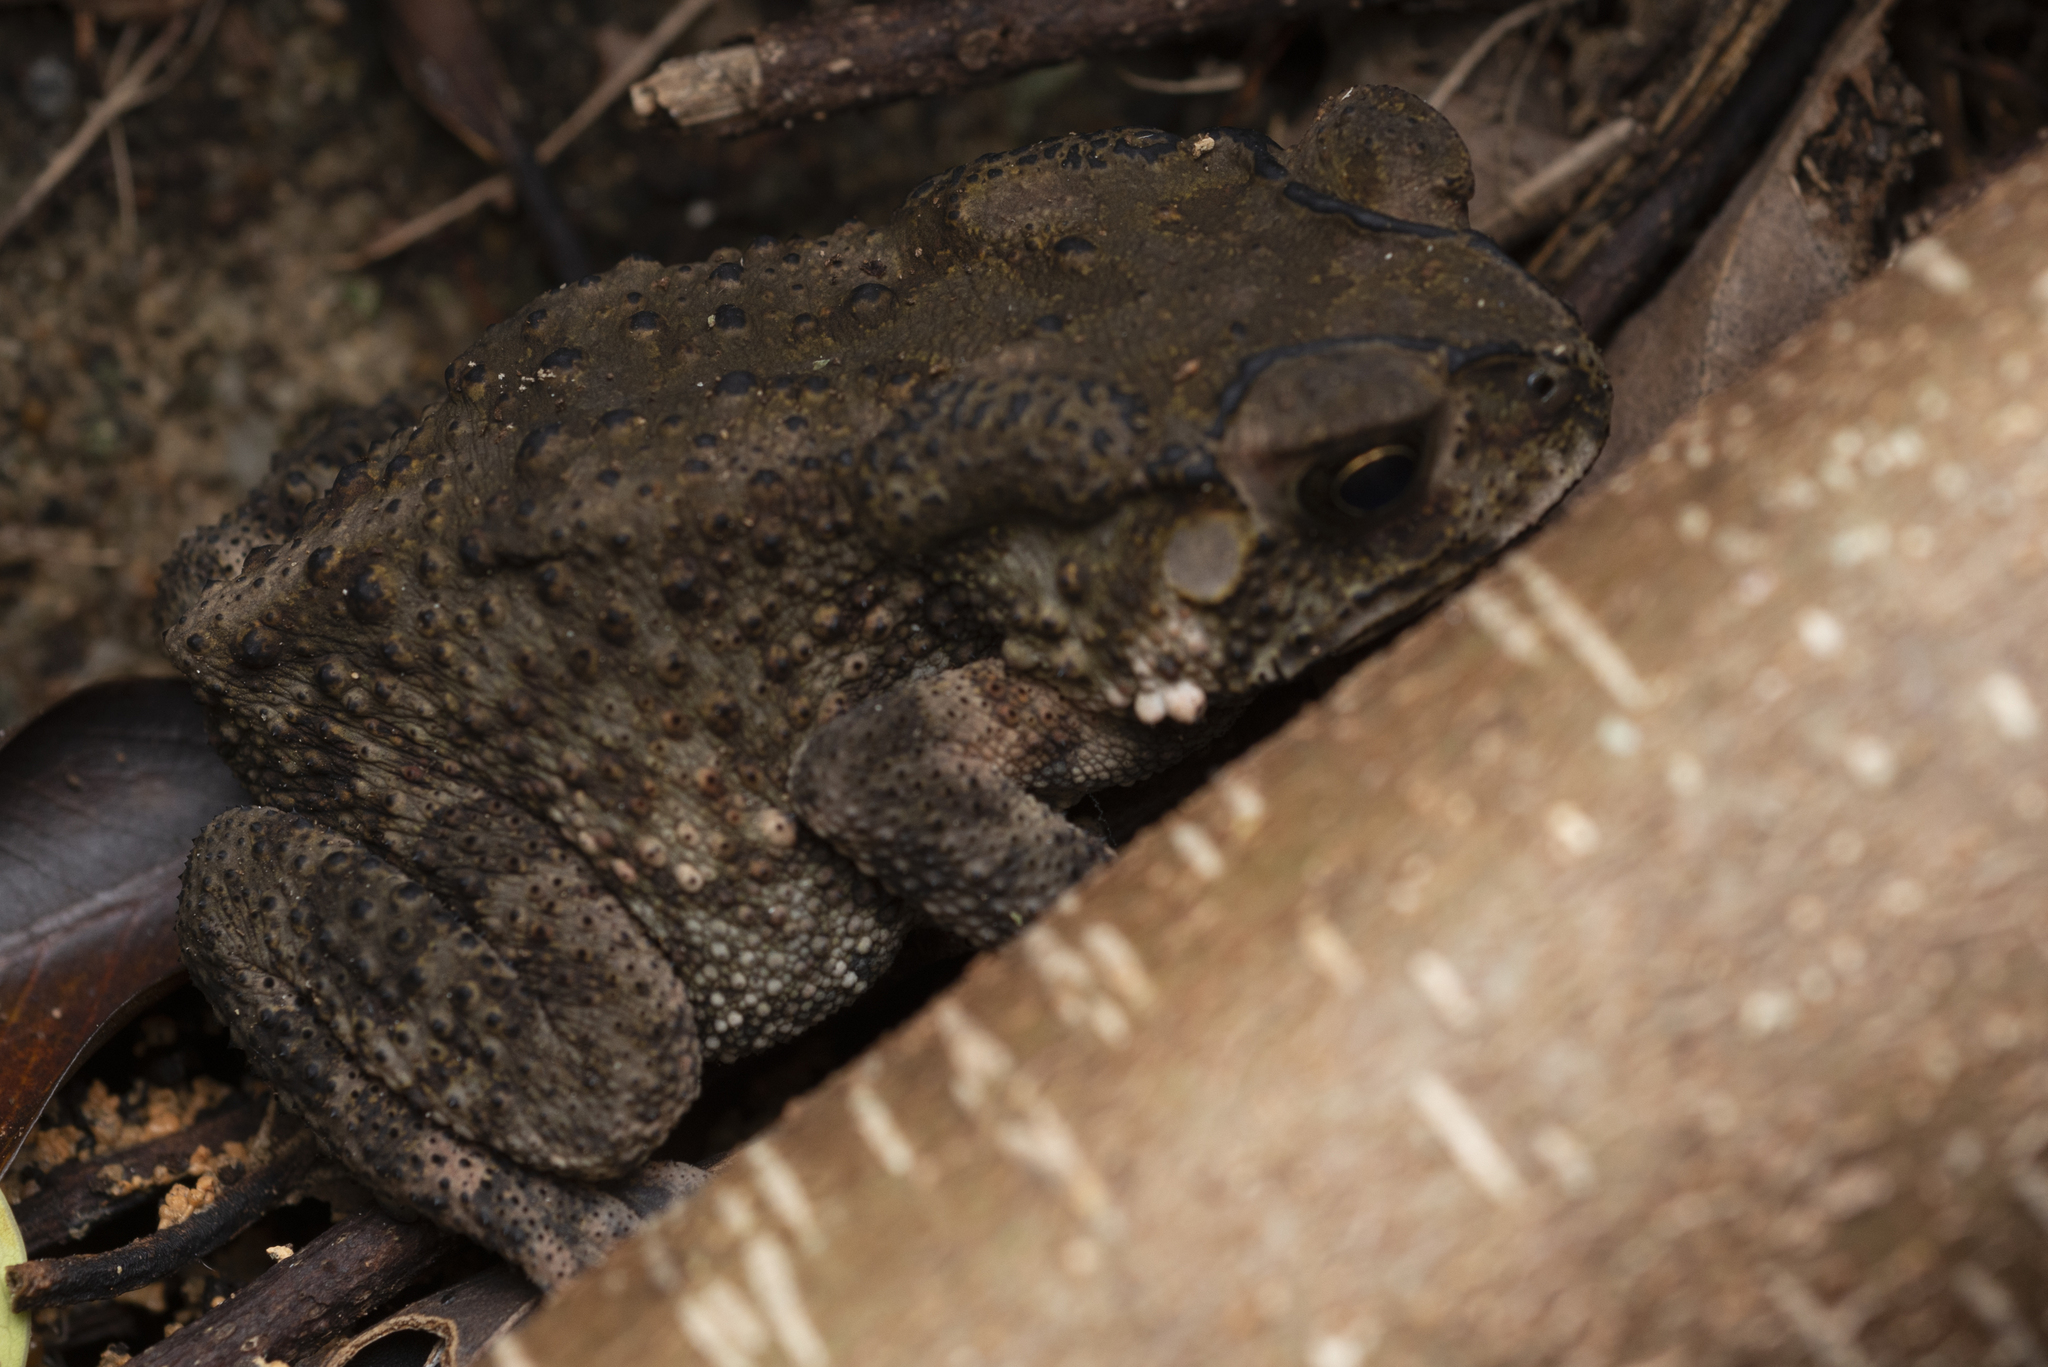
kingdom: Animalia
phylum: Chordata
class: Amphibia
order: Anura
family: Bufonidae
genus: Duttaphrynus
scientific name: Duttaphrynus melanostictus
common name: Common sunda toad
